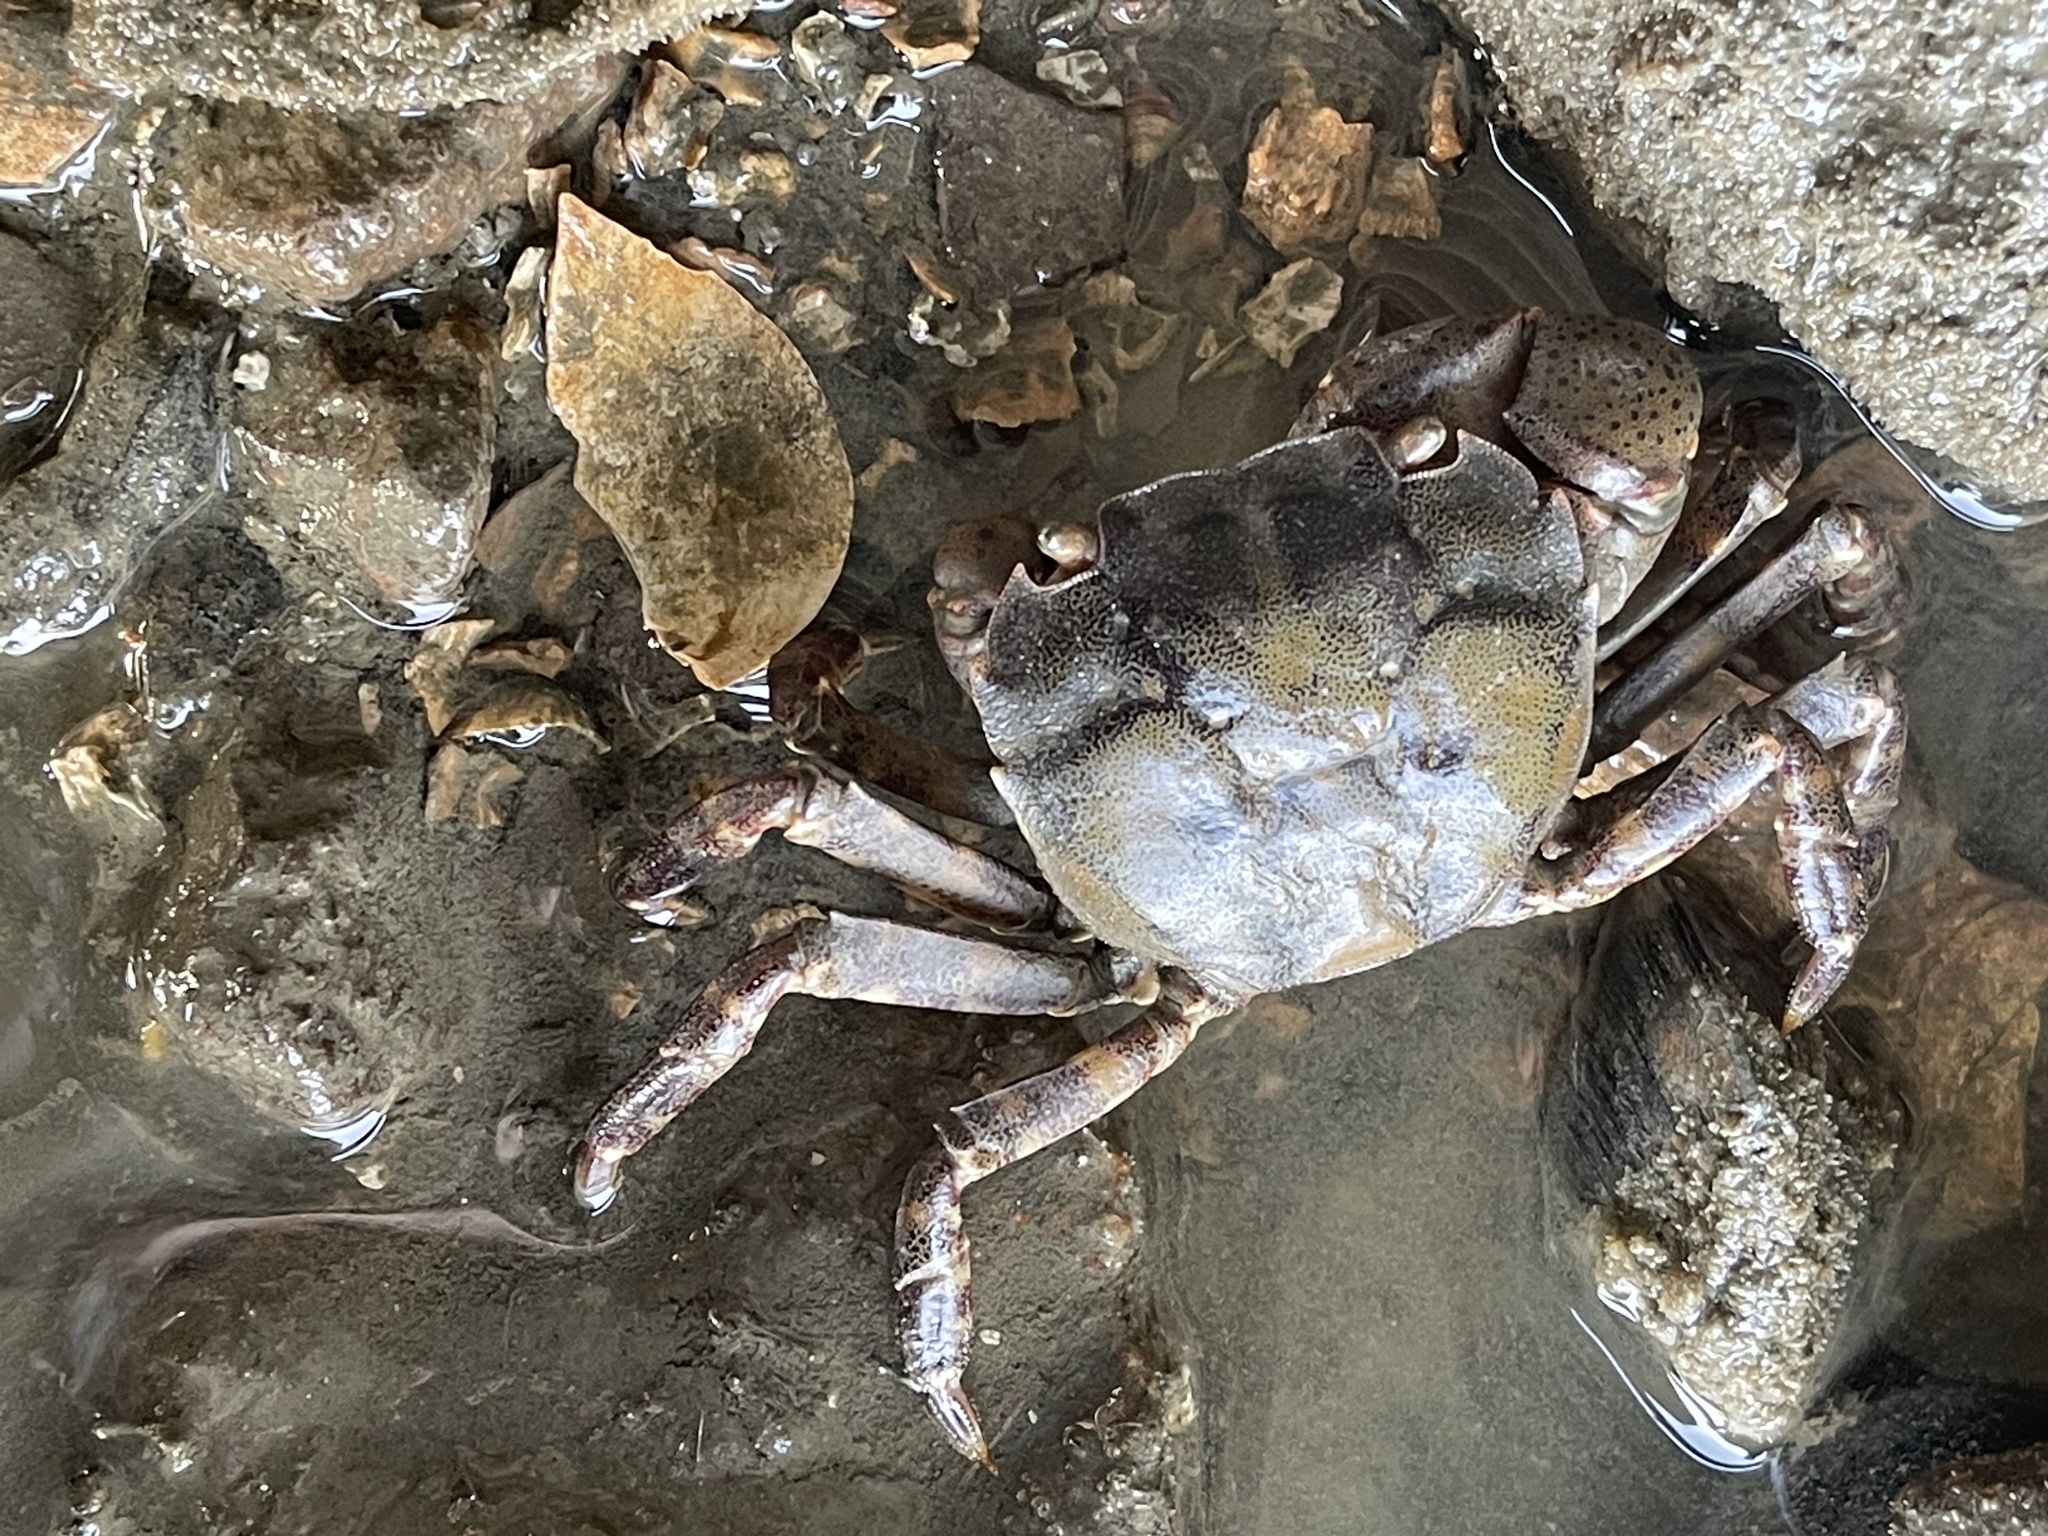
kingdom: Animalia
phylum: Arthropoda
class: Malacostraca
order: Decapoda
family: Varunidae
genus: Hemigrapsus
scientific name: Hemigrapsus sanguineus
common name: Asian shore crab
